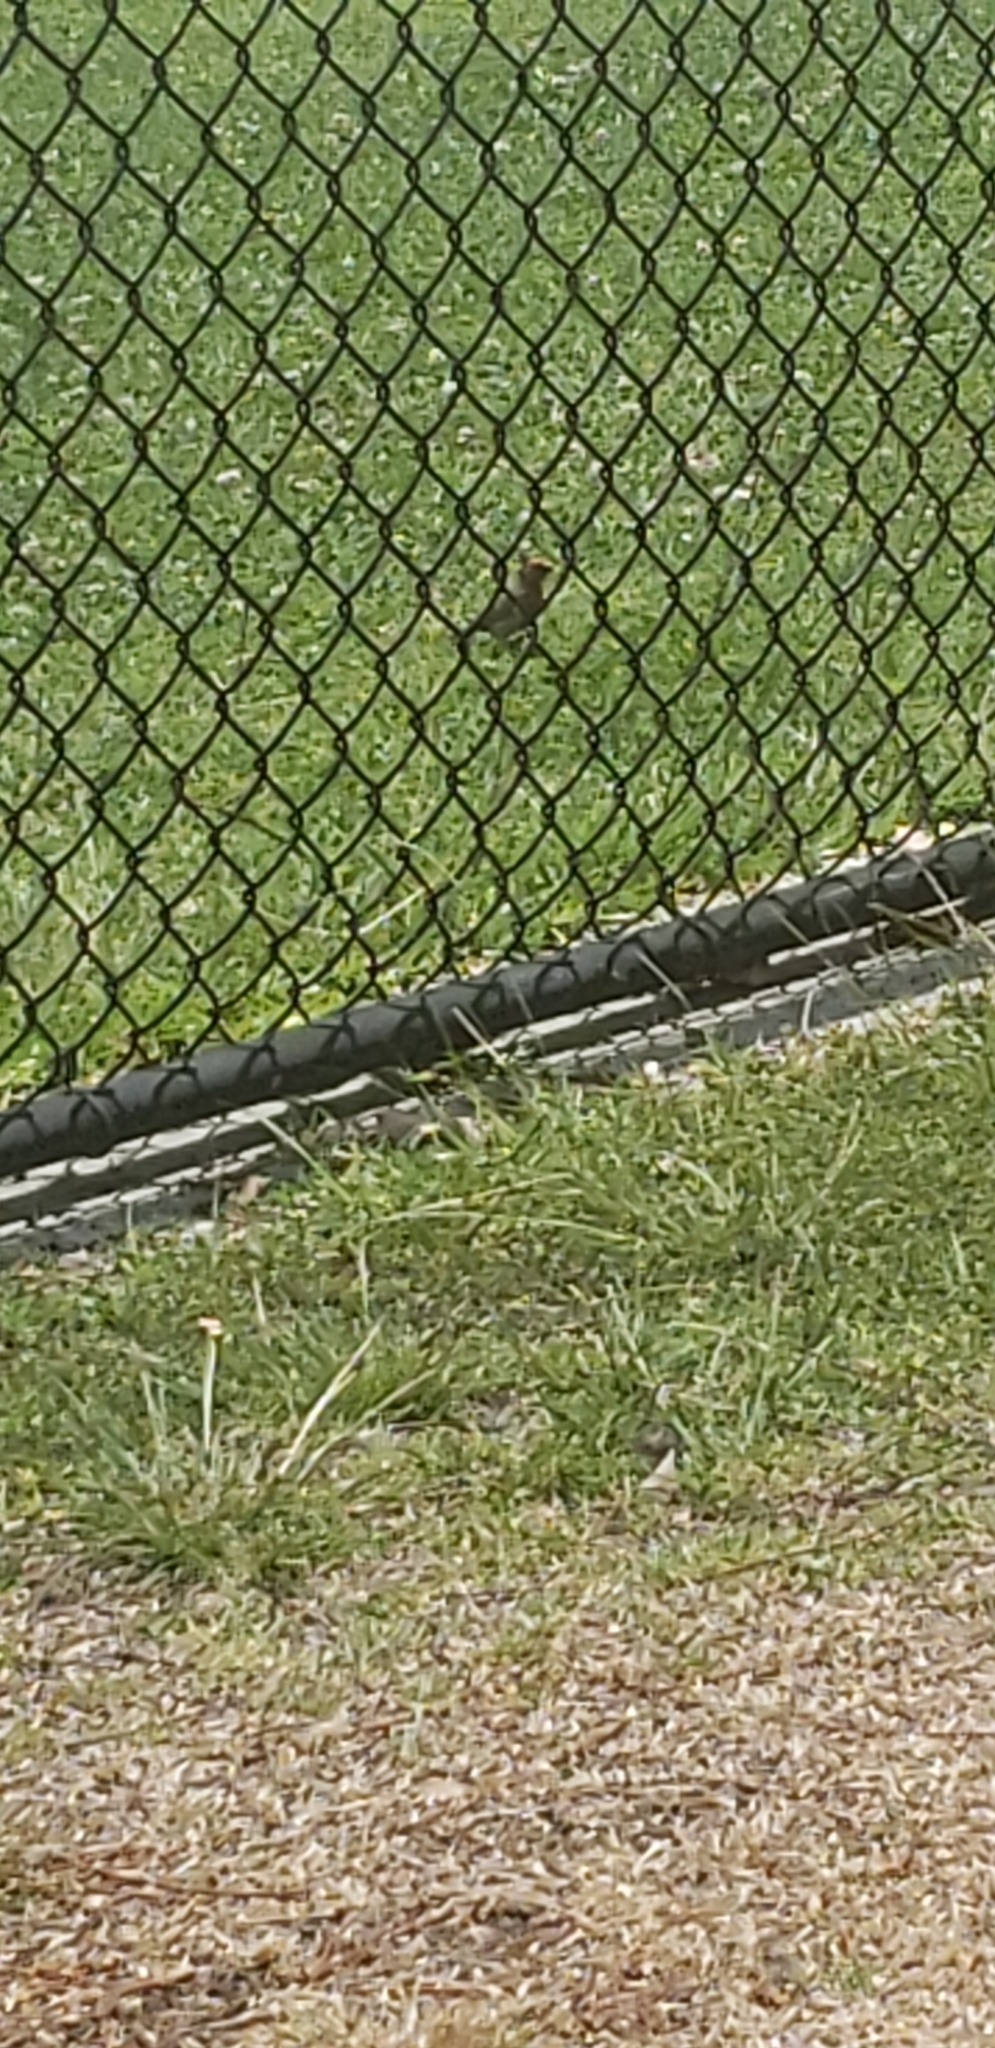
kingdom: Animalia
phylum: Chordata
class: Aves
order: Passeriformes
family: Fringillidae
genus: Haemorhous
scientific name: Haemorhous mexicanus
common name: House finch
